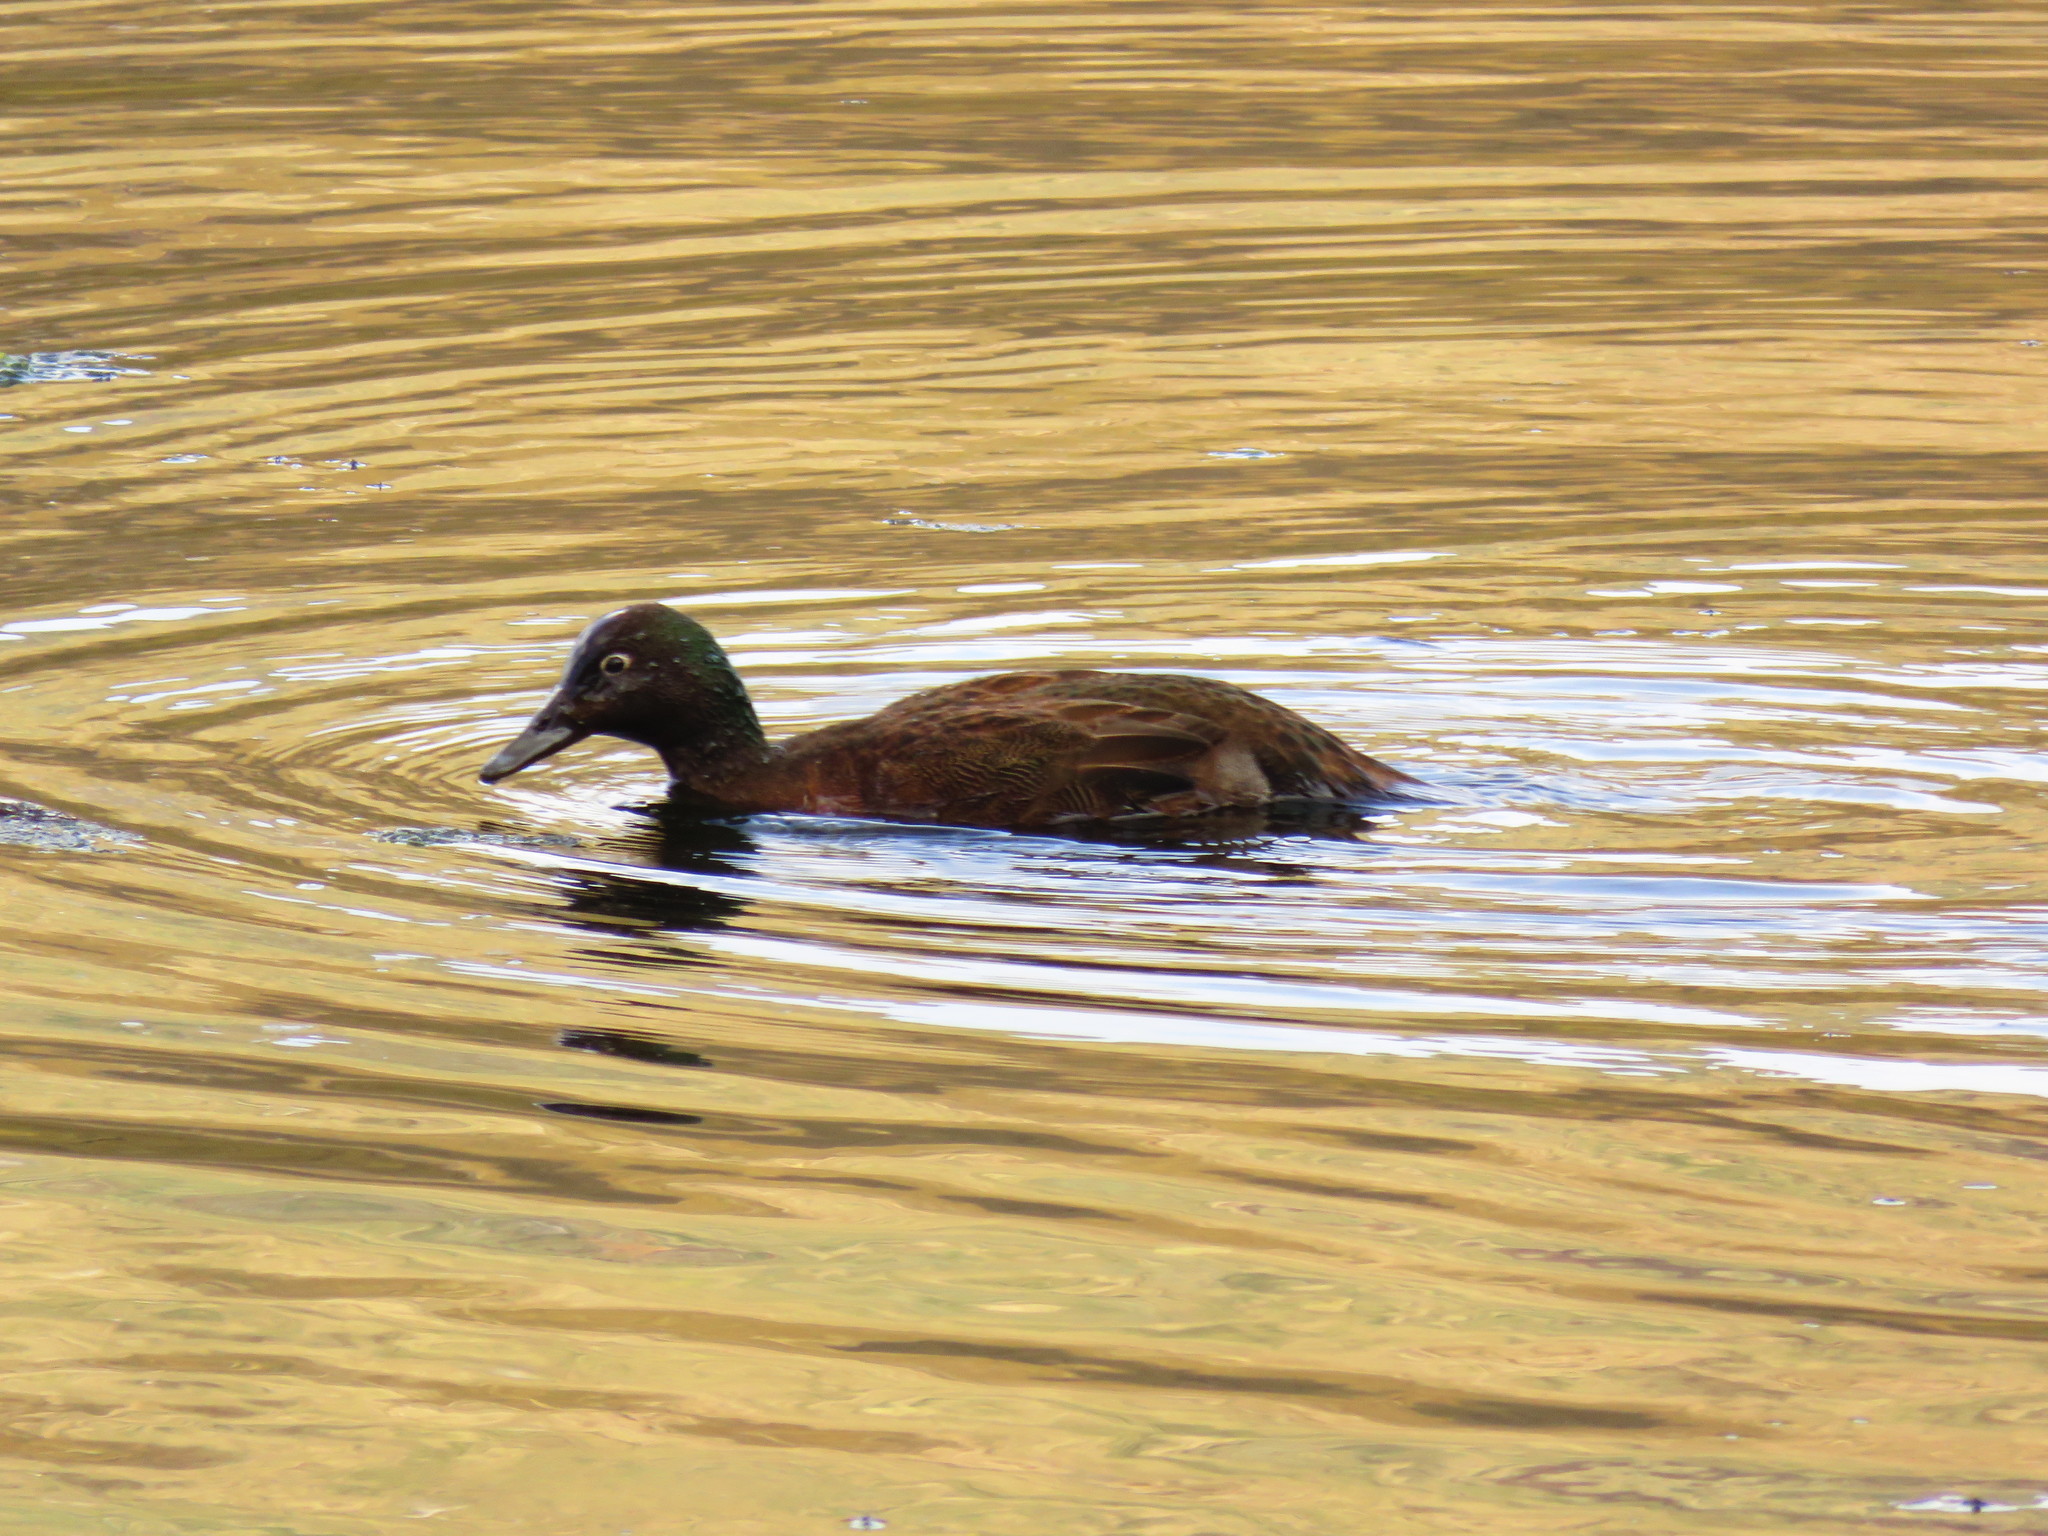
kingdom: Animalia
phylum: Chordata
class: Aves
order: Anseriformes
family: Anatidae
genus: Anas
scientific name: Anas nesiotis
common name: Campbell teal
